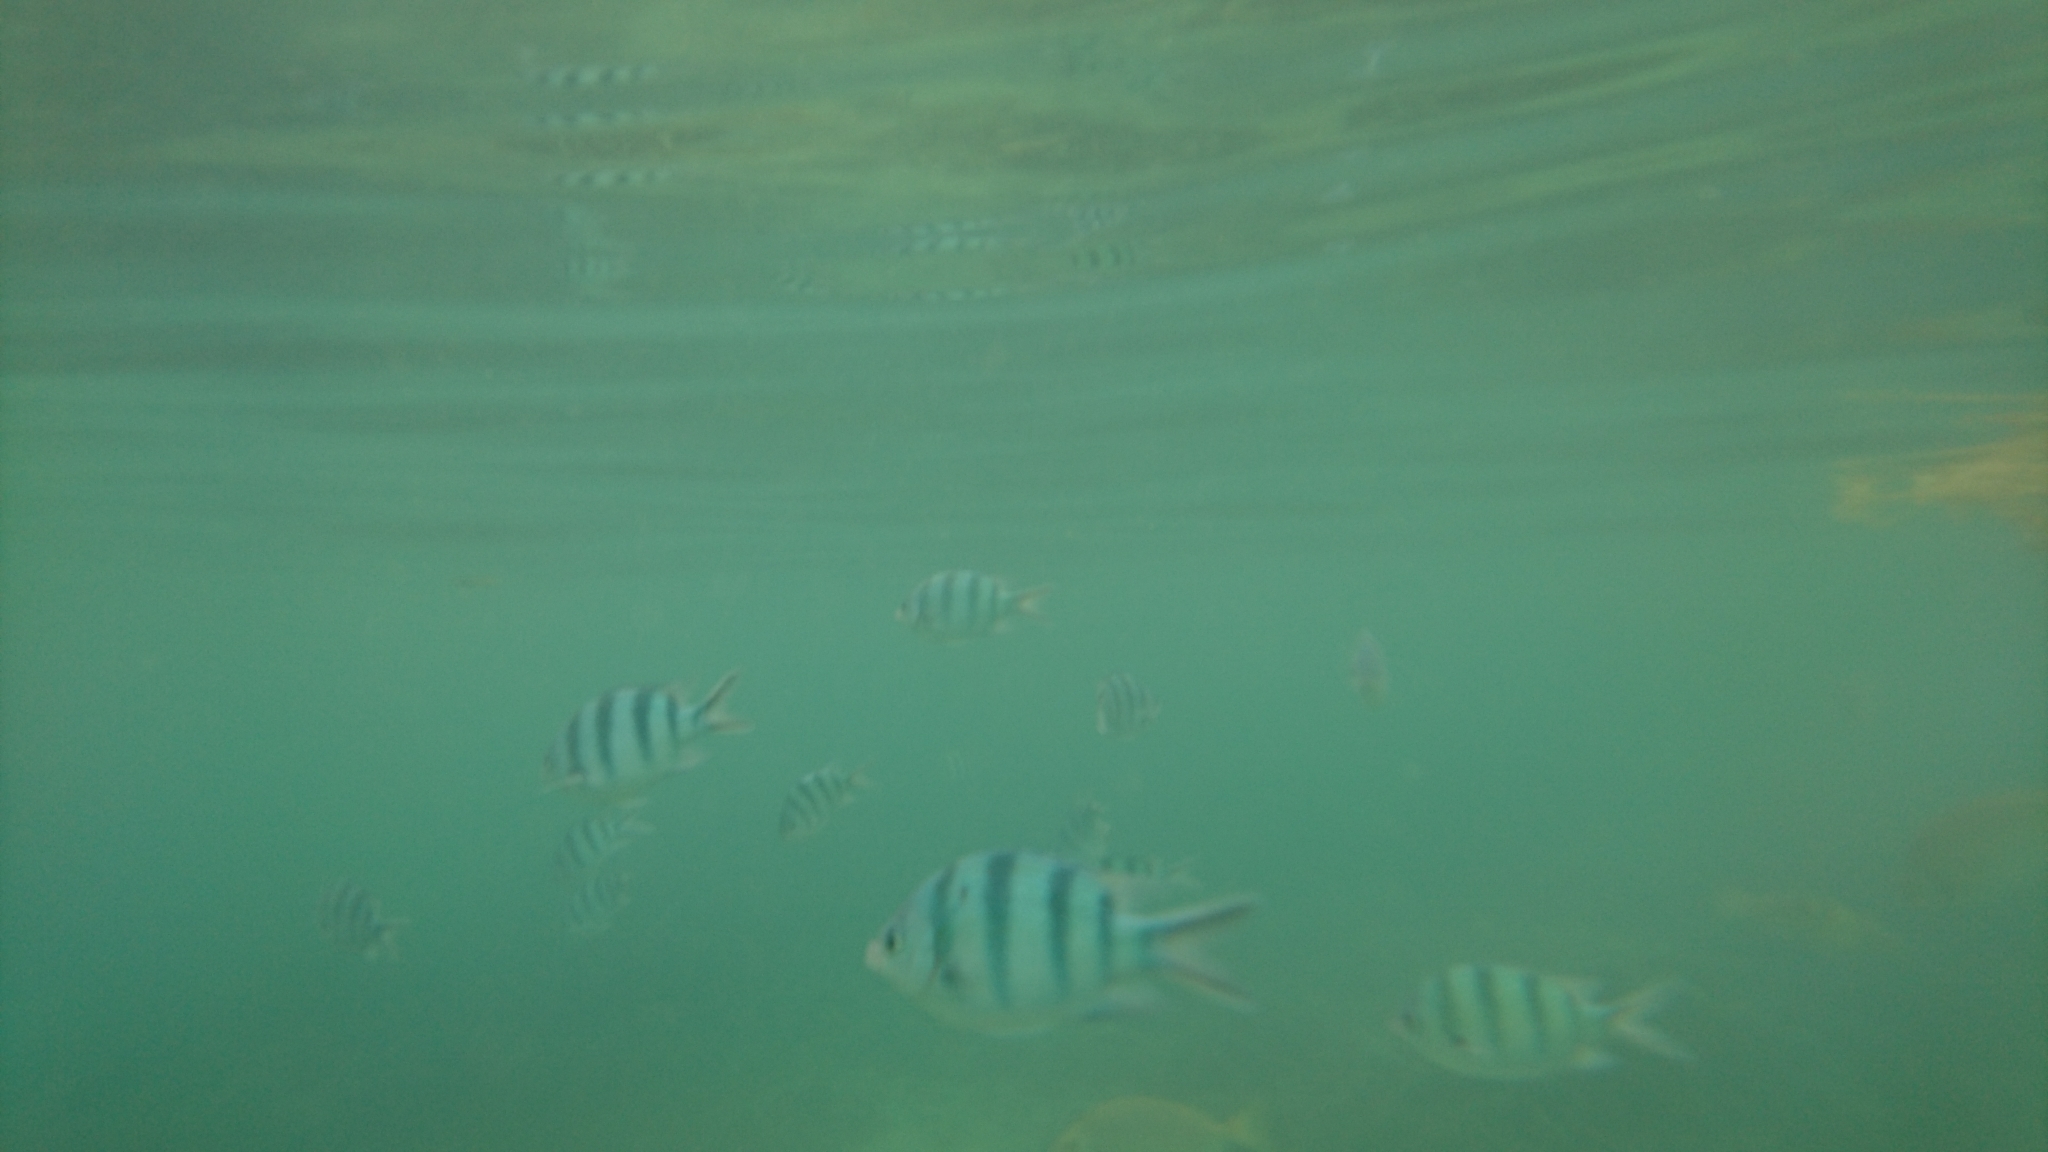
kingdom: Animalia
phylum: Chordata
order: Perciformes
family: Pomacentridae
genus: Abudefduf
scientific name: Abudefduf sexfasciatus
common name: Scissortail sergeant
